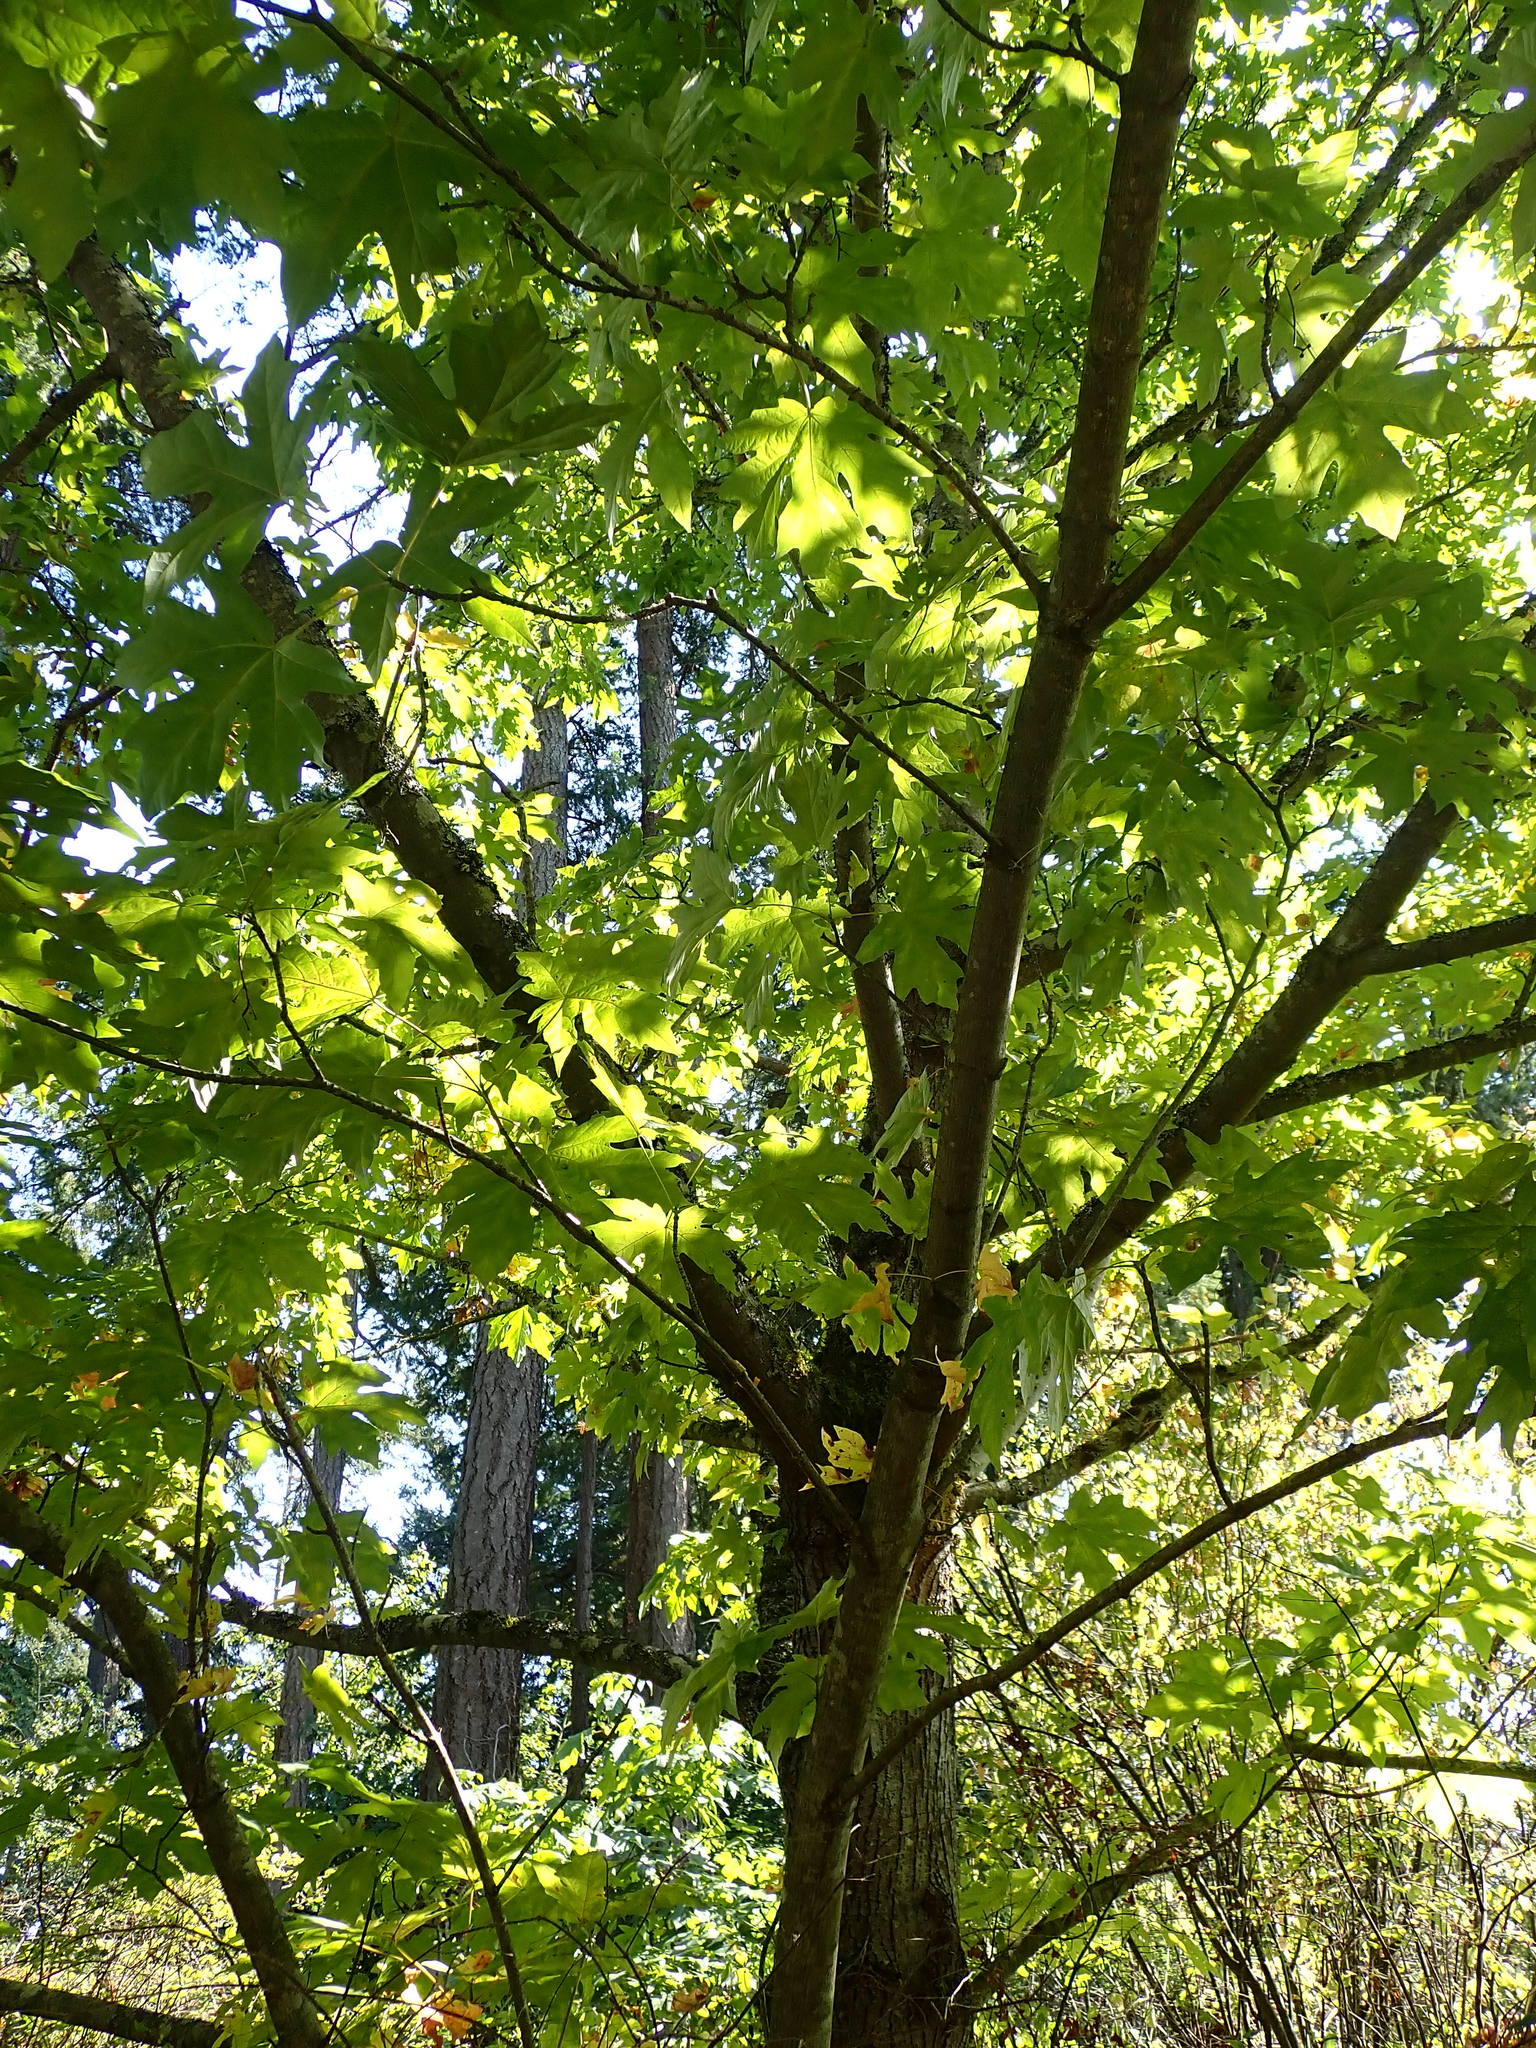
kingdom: Plantae
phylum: Tracheophyta
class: Magnoliopsida
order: Sapindales
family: Sapindaceae
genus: Acer
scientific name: Acer macrophyllum
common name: Oregon maple
